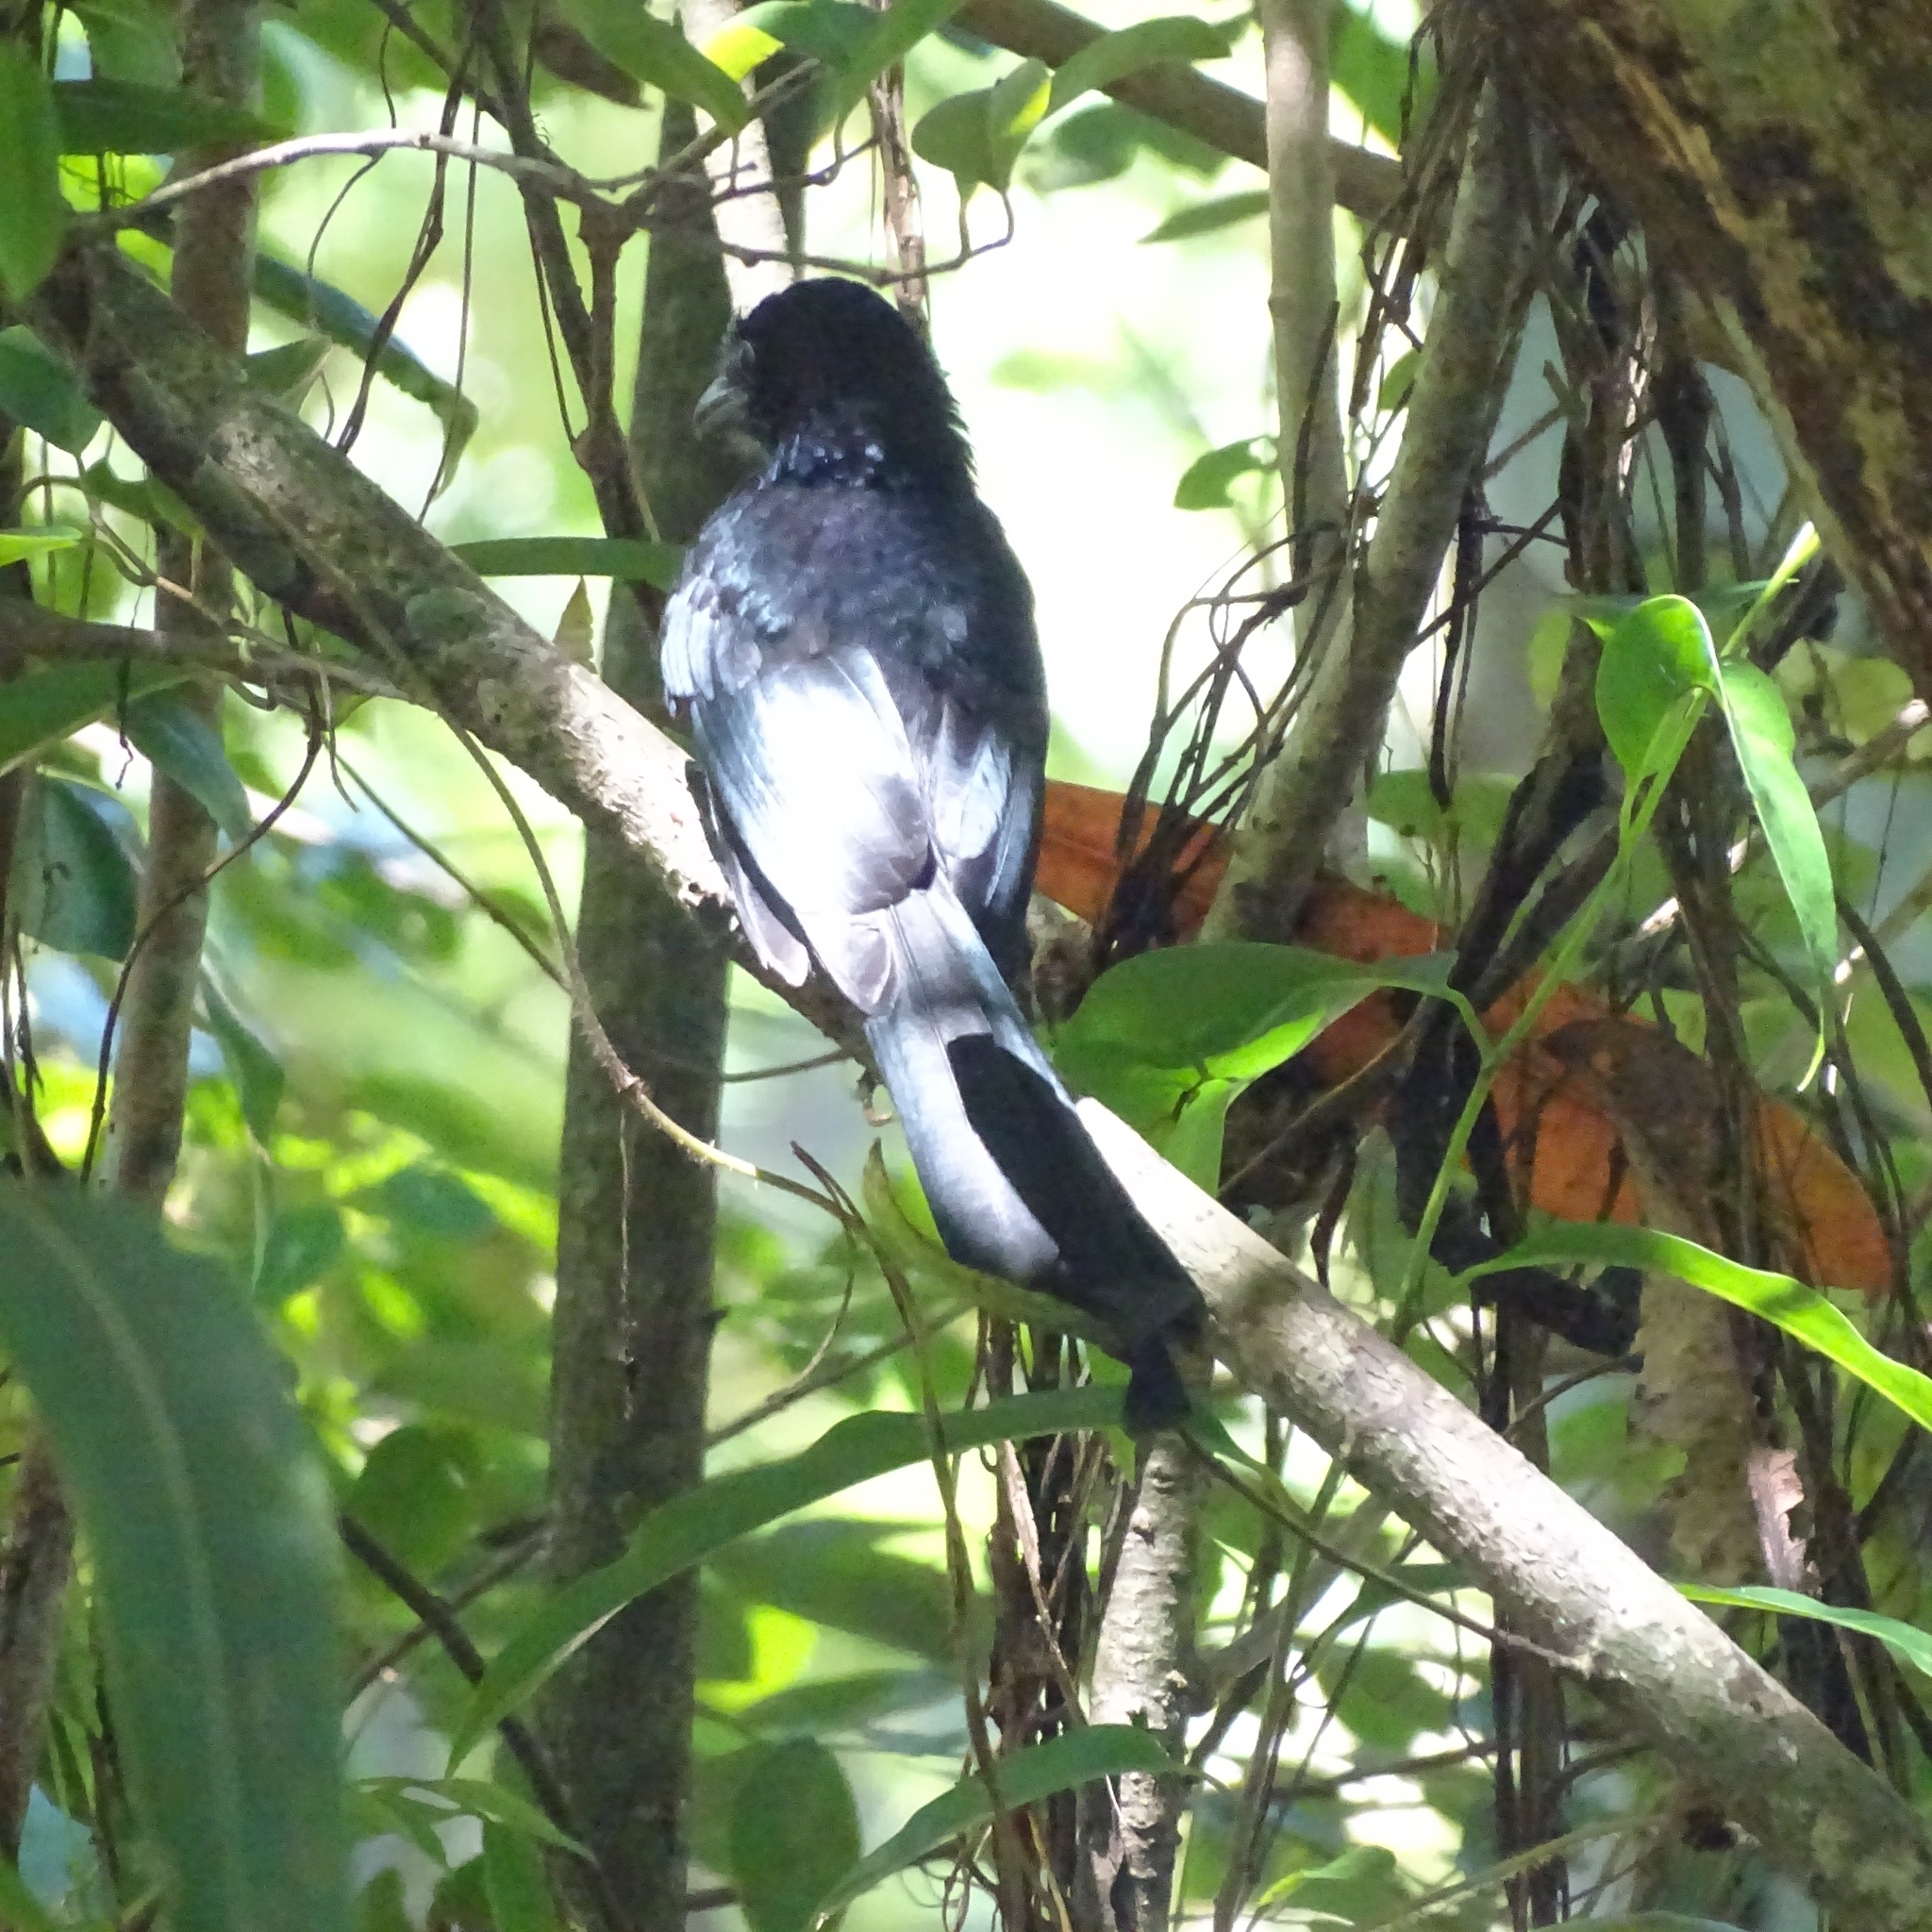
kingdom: Animalia
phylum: Chordata
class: Aves
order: Passeriformes
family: Dicruridae
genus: Dicrurus
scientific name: Dicrurus paradiseus
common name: Greater racket-tailed drongo
